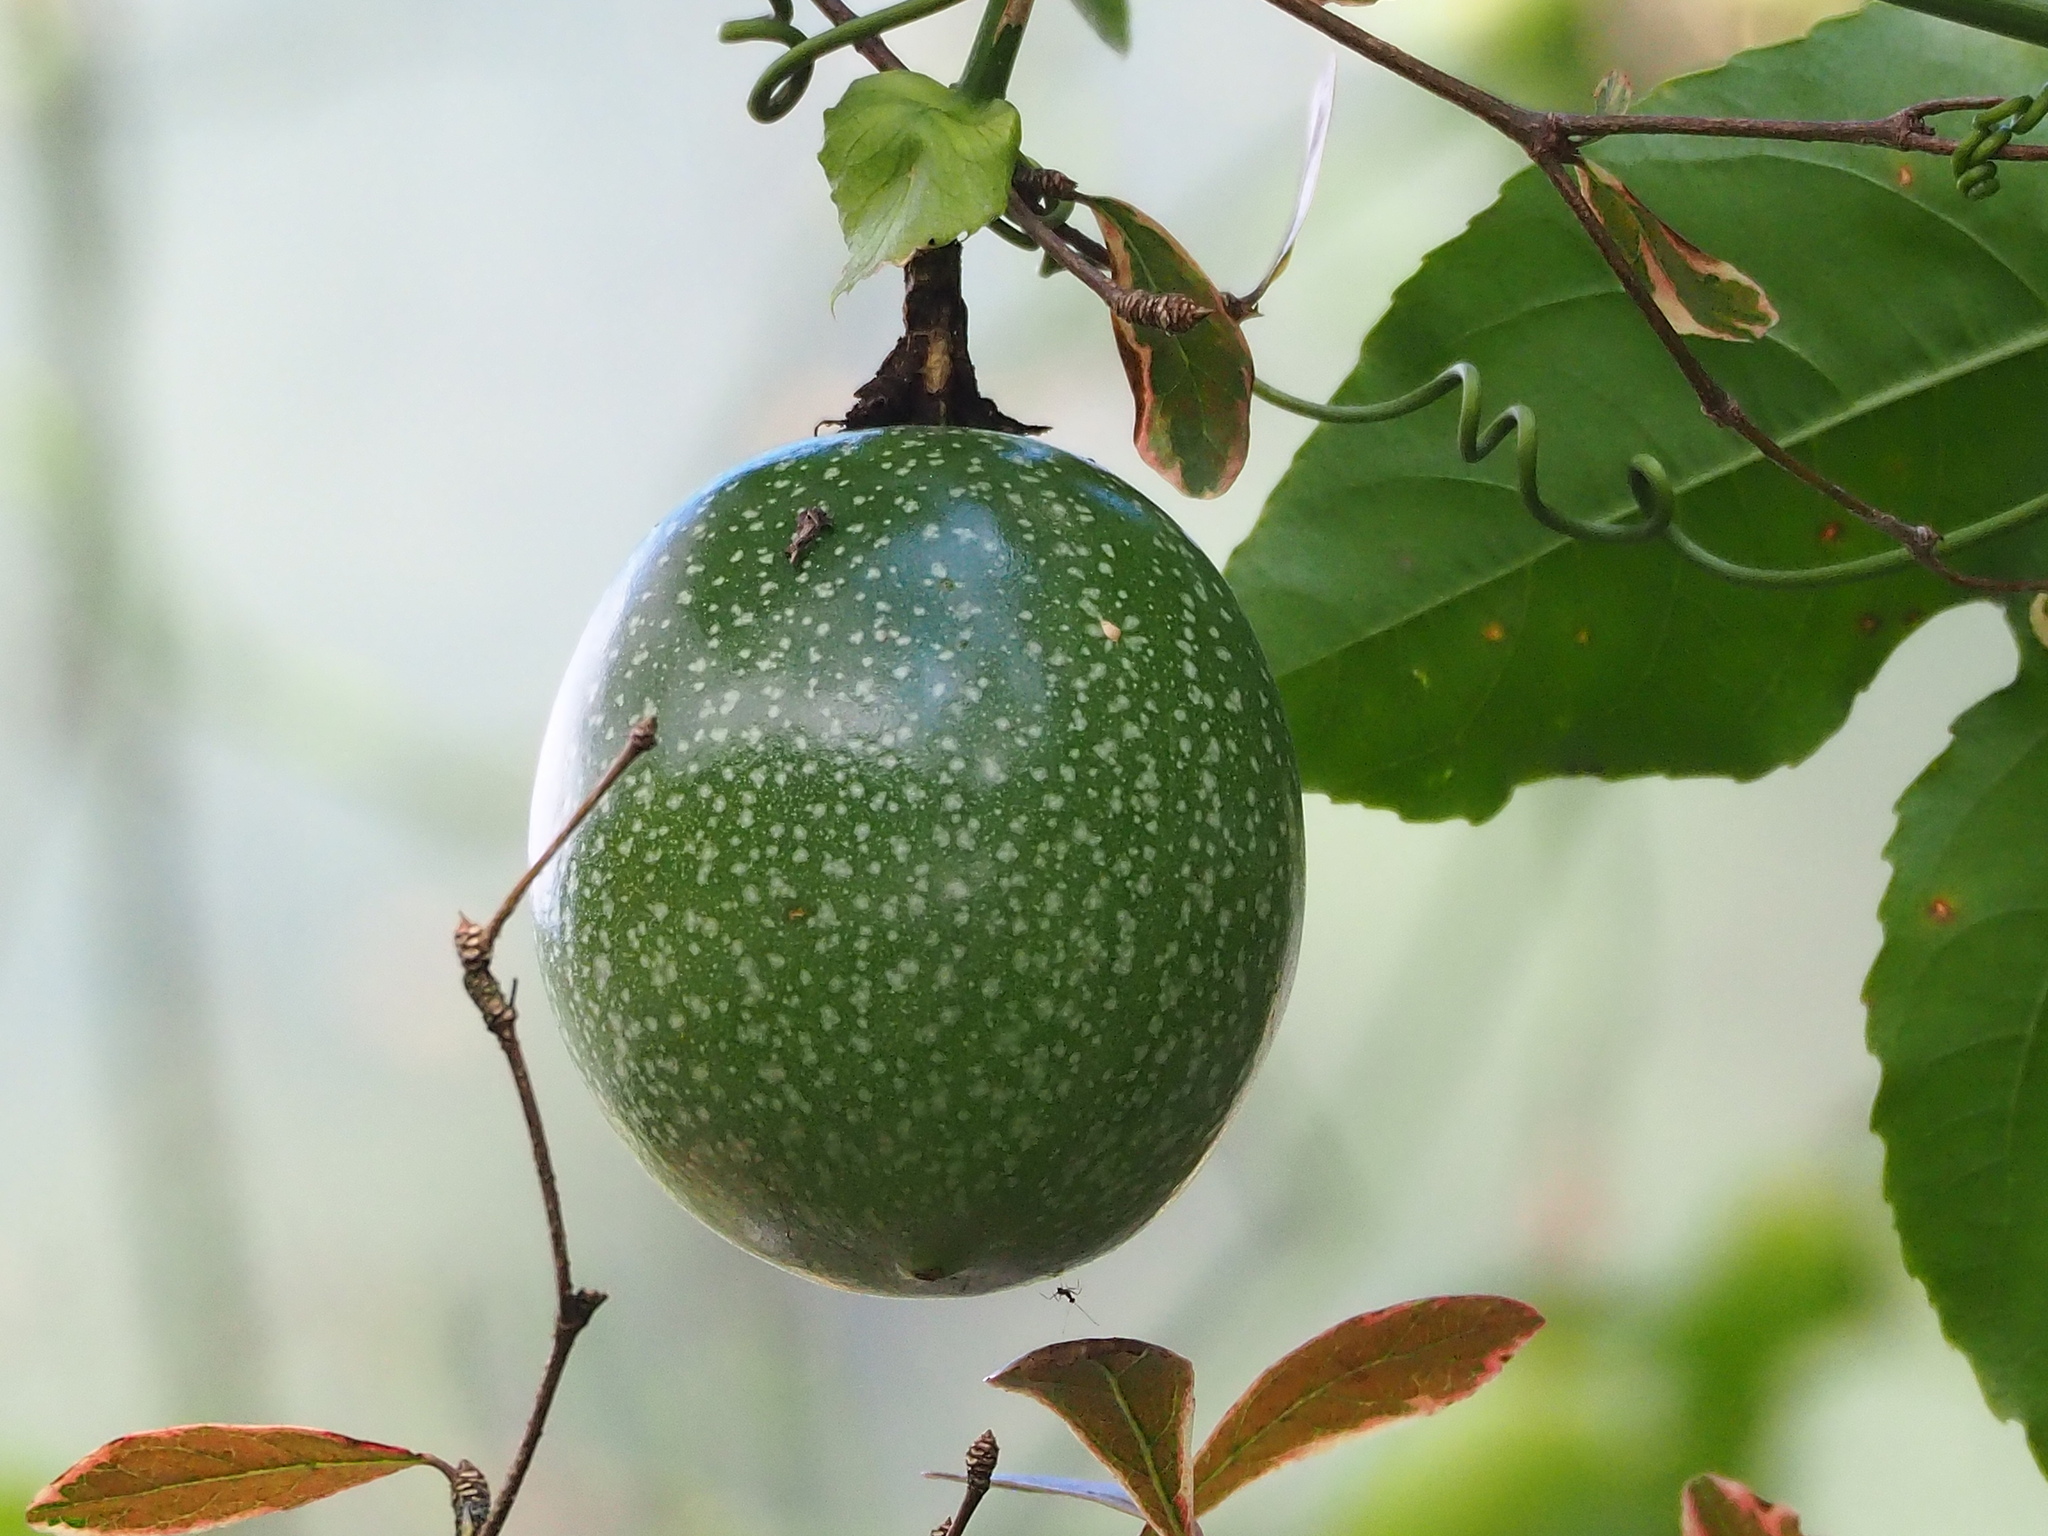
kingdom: Plantae
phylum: Tracheophyta
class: Magnoliopsida
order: Malpighiales
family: Passifloraceae
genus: Passiflora
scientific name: Passiflora edulis
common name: Purple granadilla
